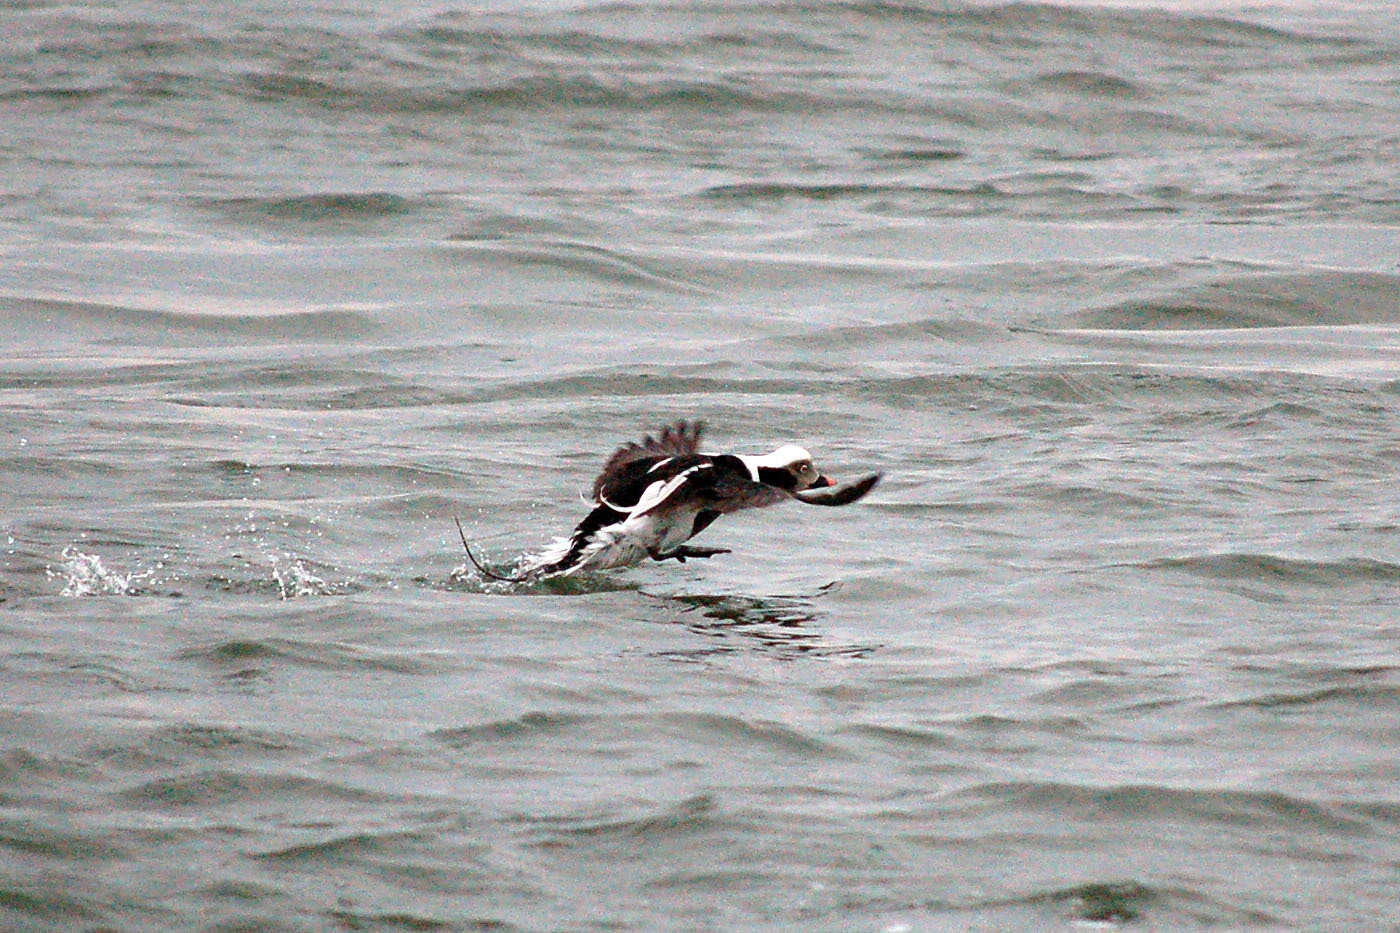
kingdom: Animalia
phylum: Chordata
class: Aves
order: Anseriformes
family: Anatidae
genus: Clangula
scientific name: Clangula hyemalis
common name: Long-tailed duck
